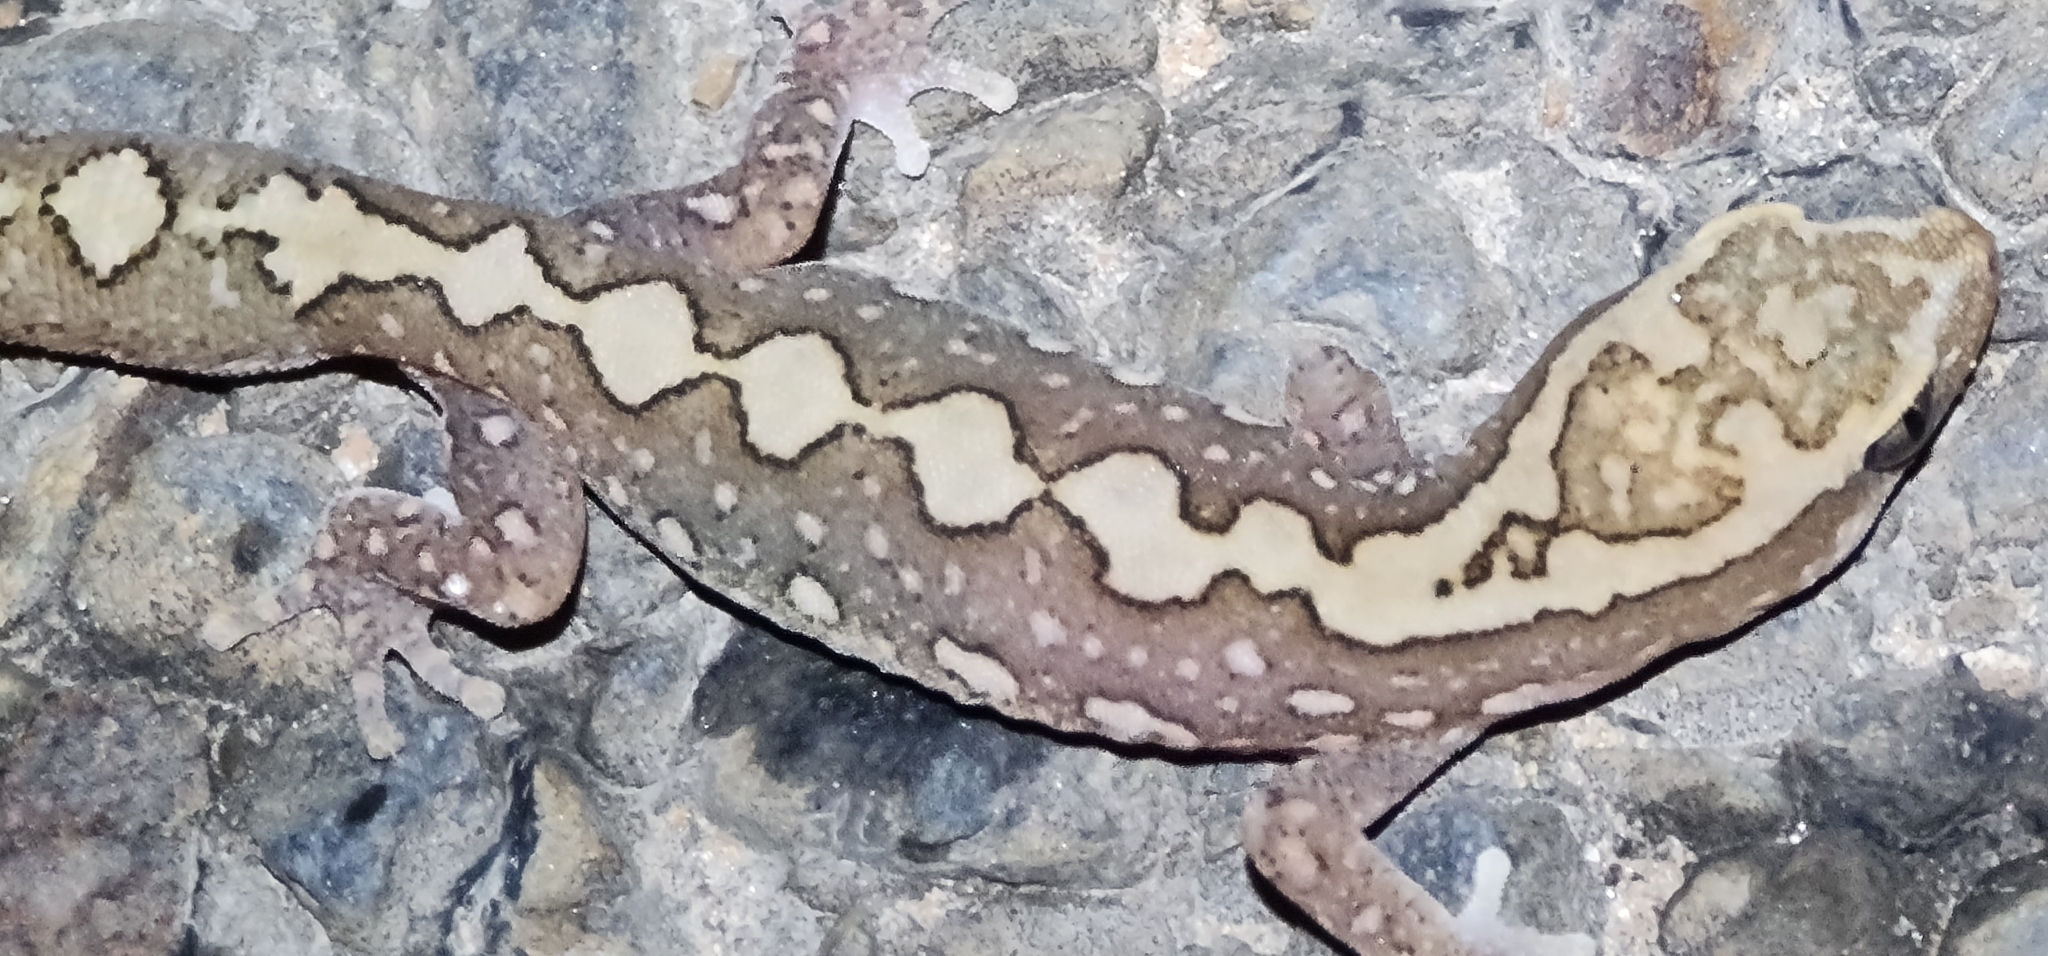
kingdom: Animalia
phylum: Chordata
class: Squamata
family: Diplodactylidae
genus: Diplodactylus
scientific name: Diplodactylus furcosus
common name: Ranges stone gecko
